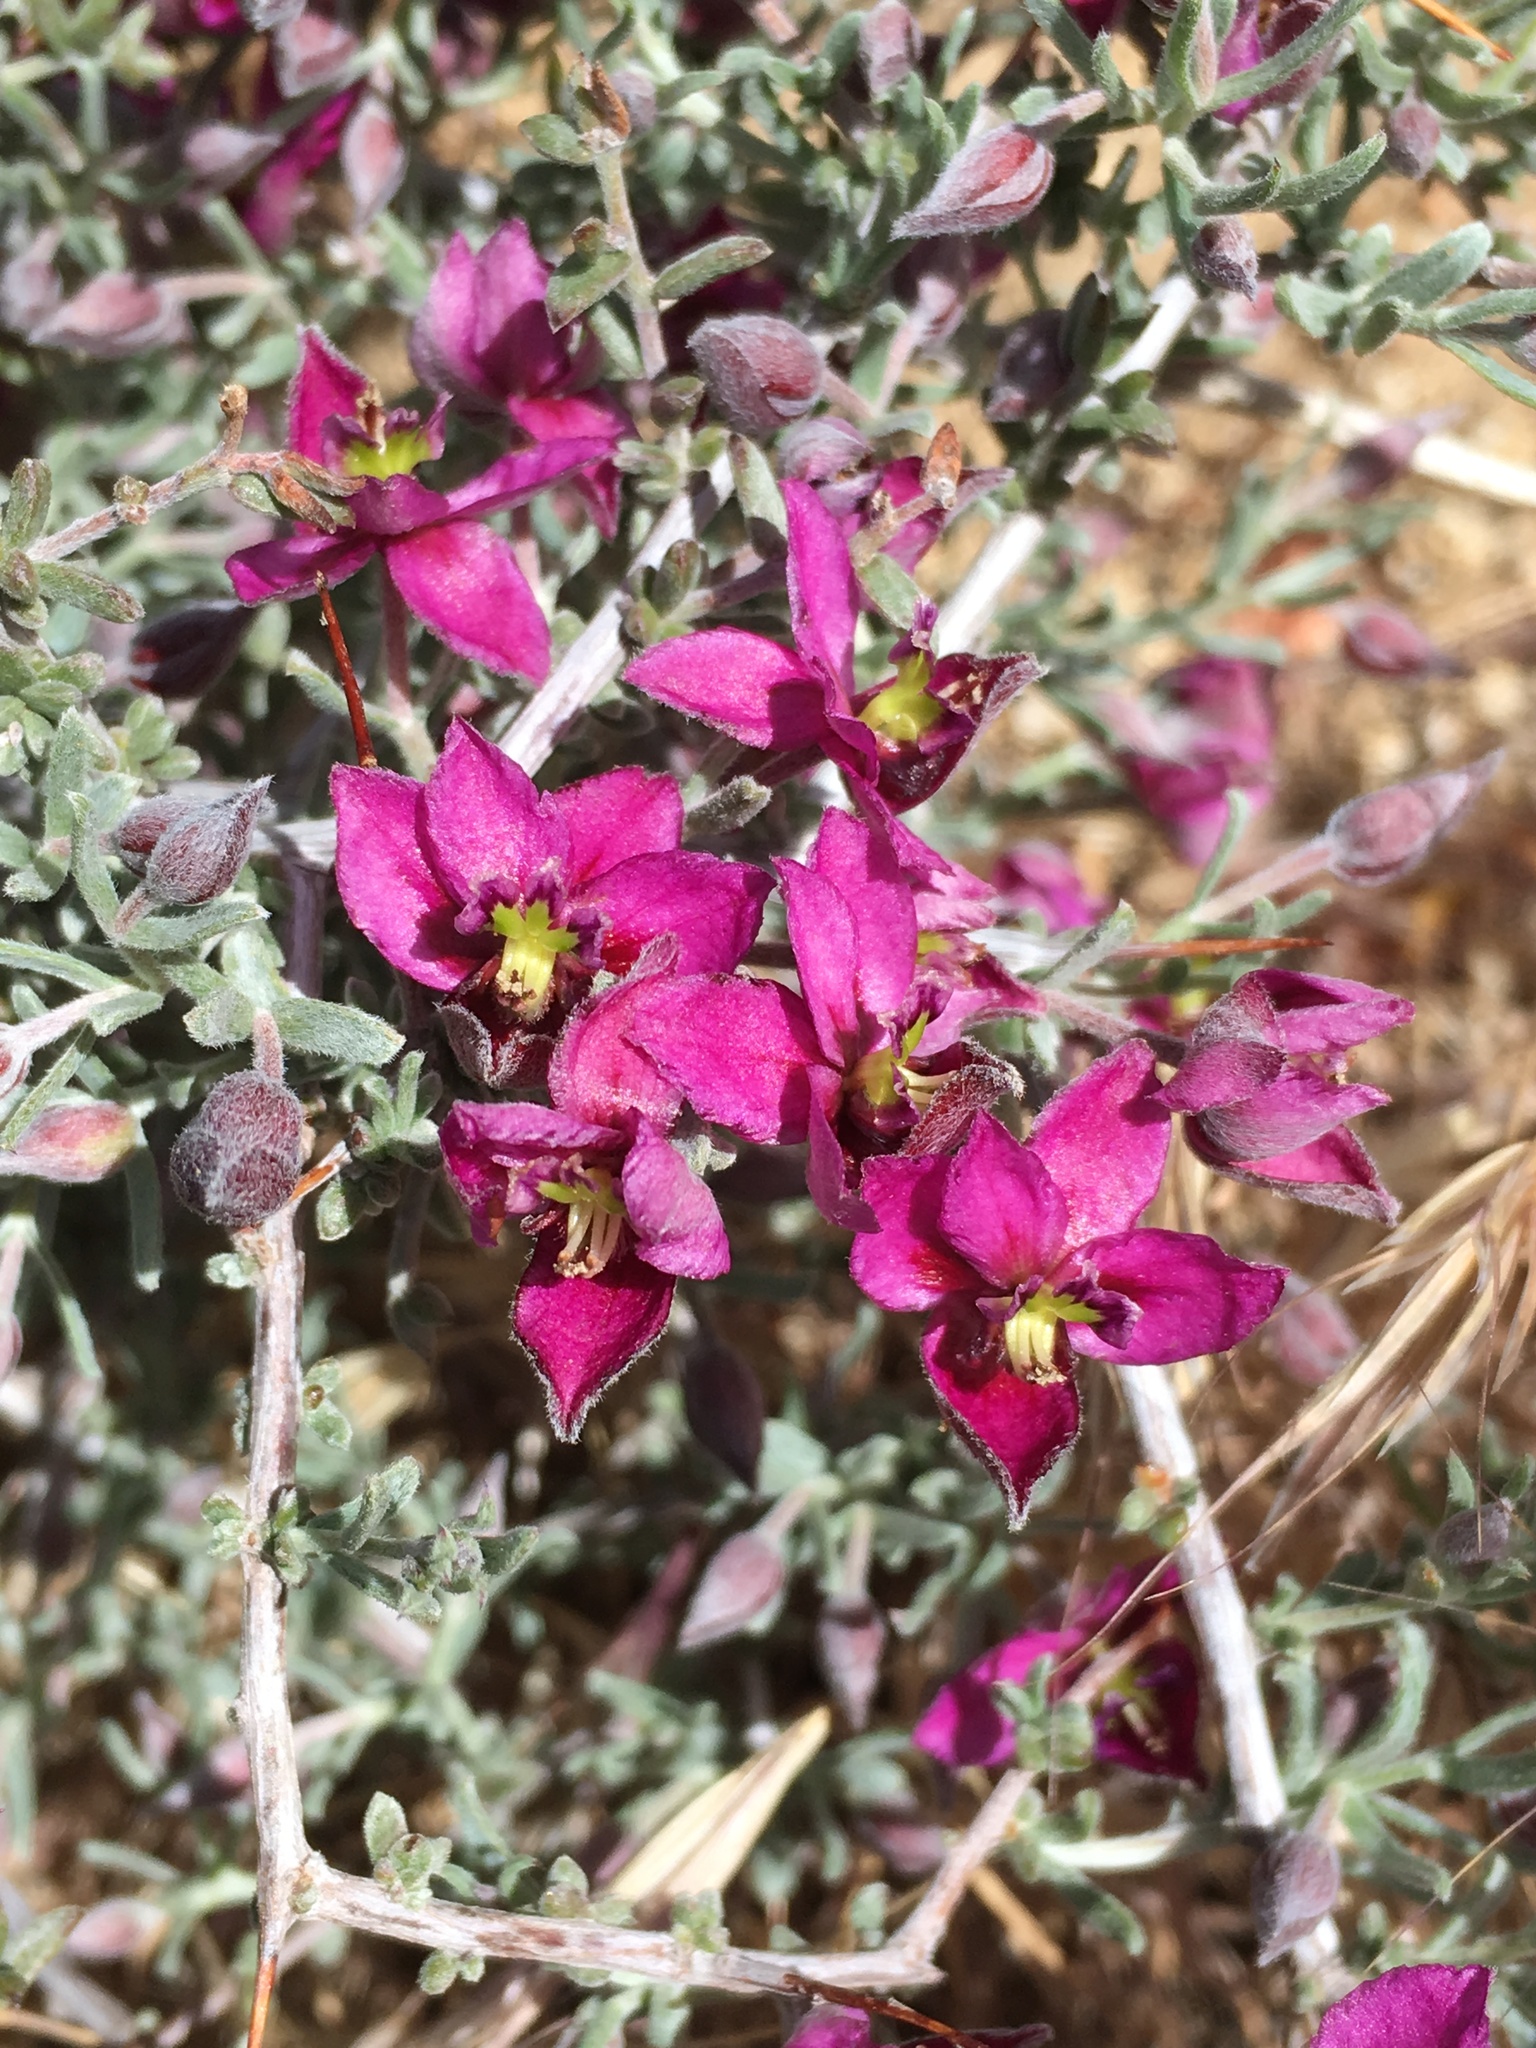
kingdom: Plantae
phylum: Tracheophyta
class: Magnoliopsida
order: Zygophyllales
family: Krameriaceae
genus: Krameria
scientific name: Krameria erecta
